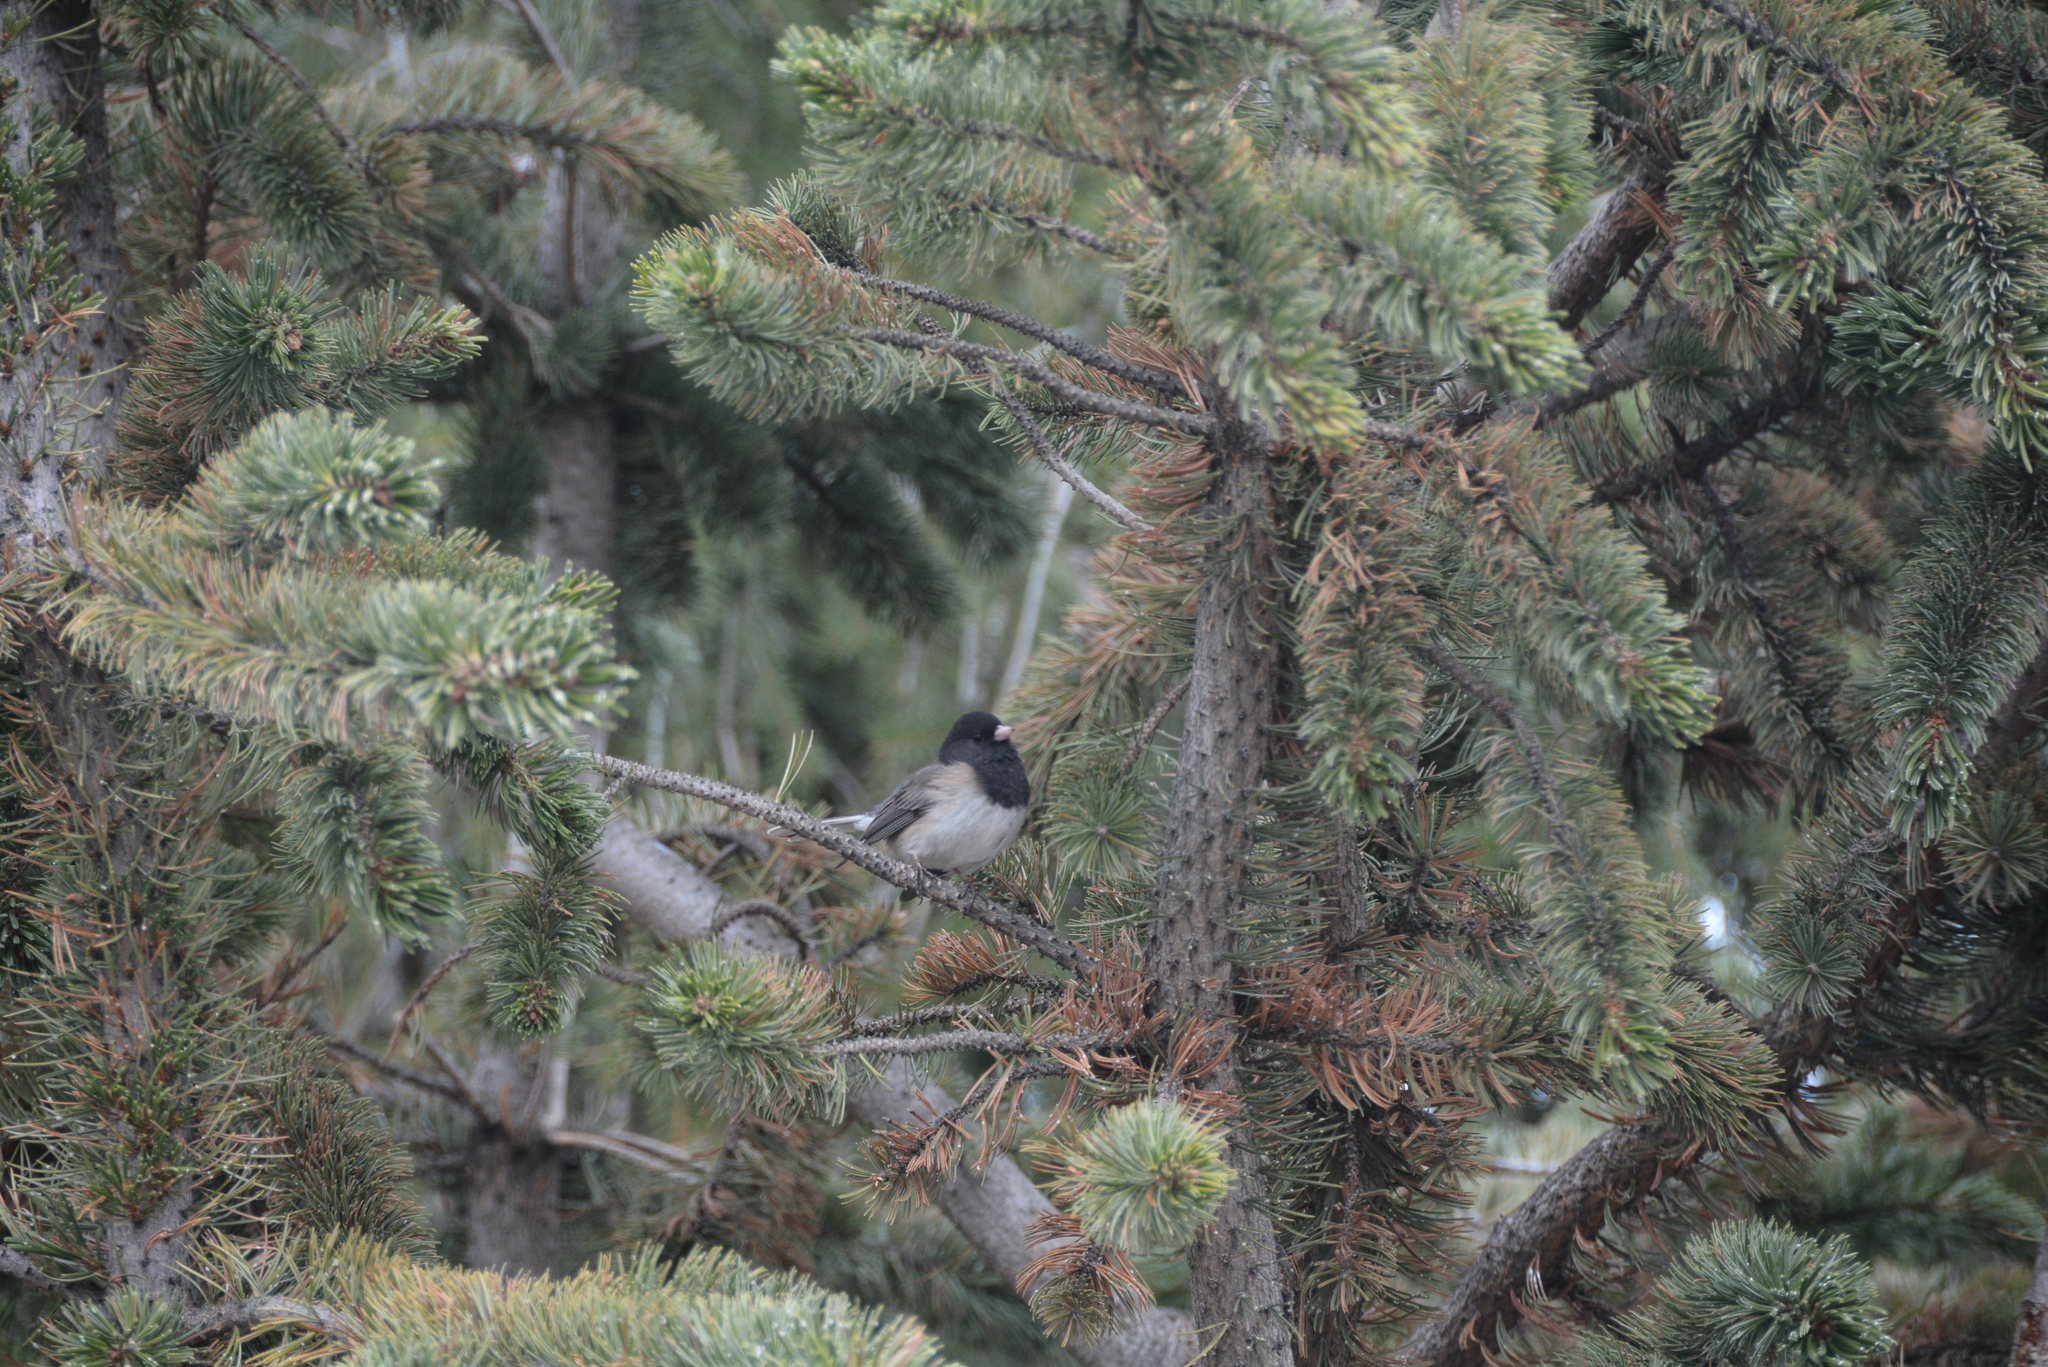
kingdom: Animalia
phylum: Chordata
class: Aves
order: Passeriformes
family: Passerellidae
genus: Junco
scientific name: Junco hyemalis
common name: Dark-eyed junco
